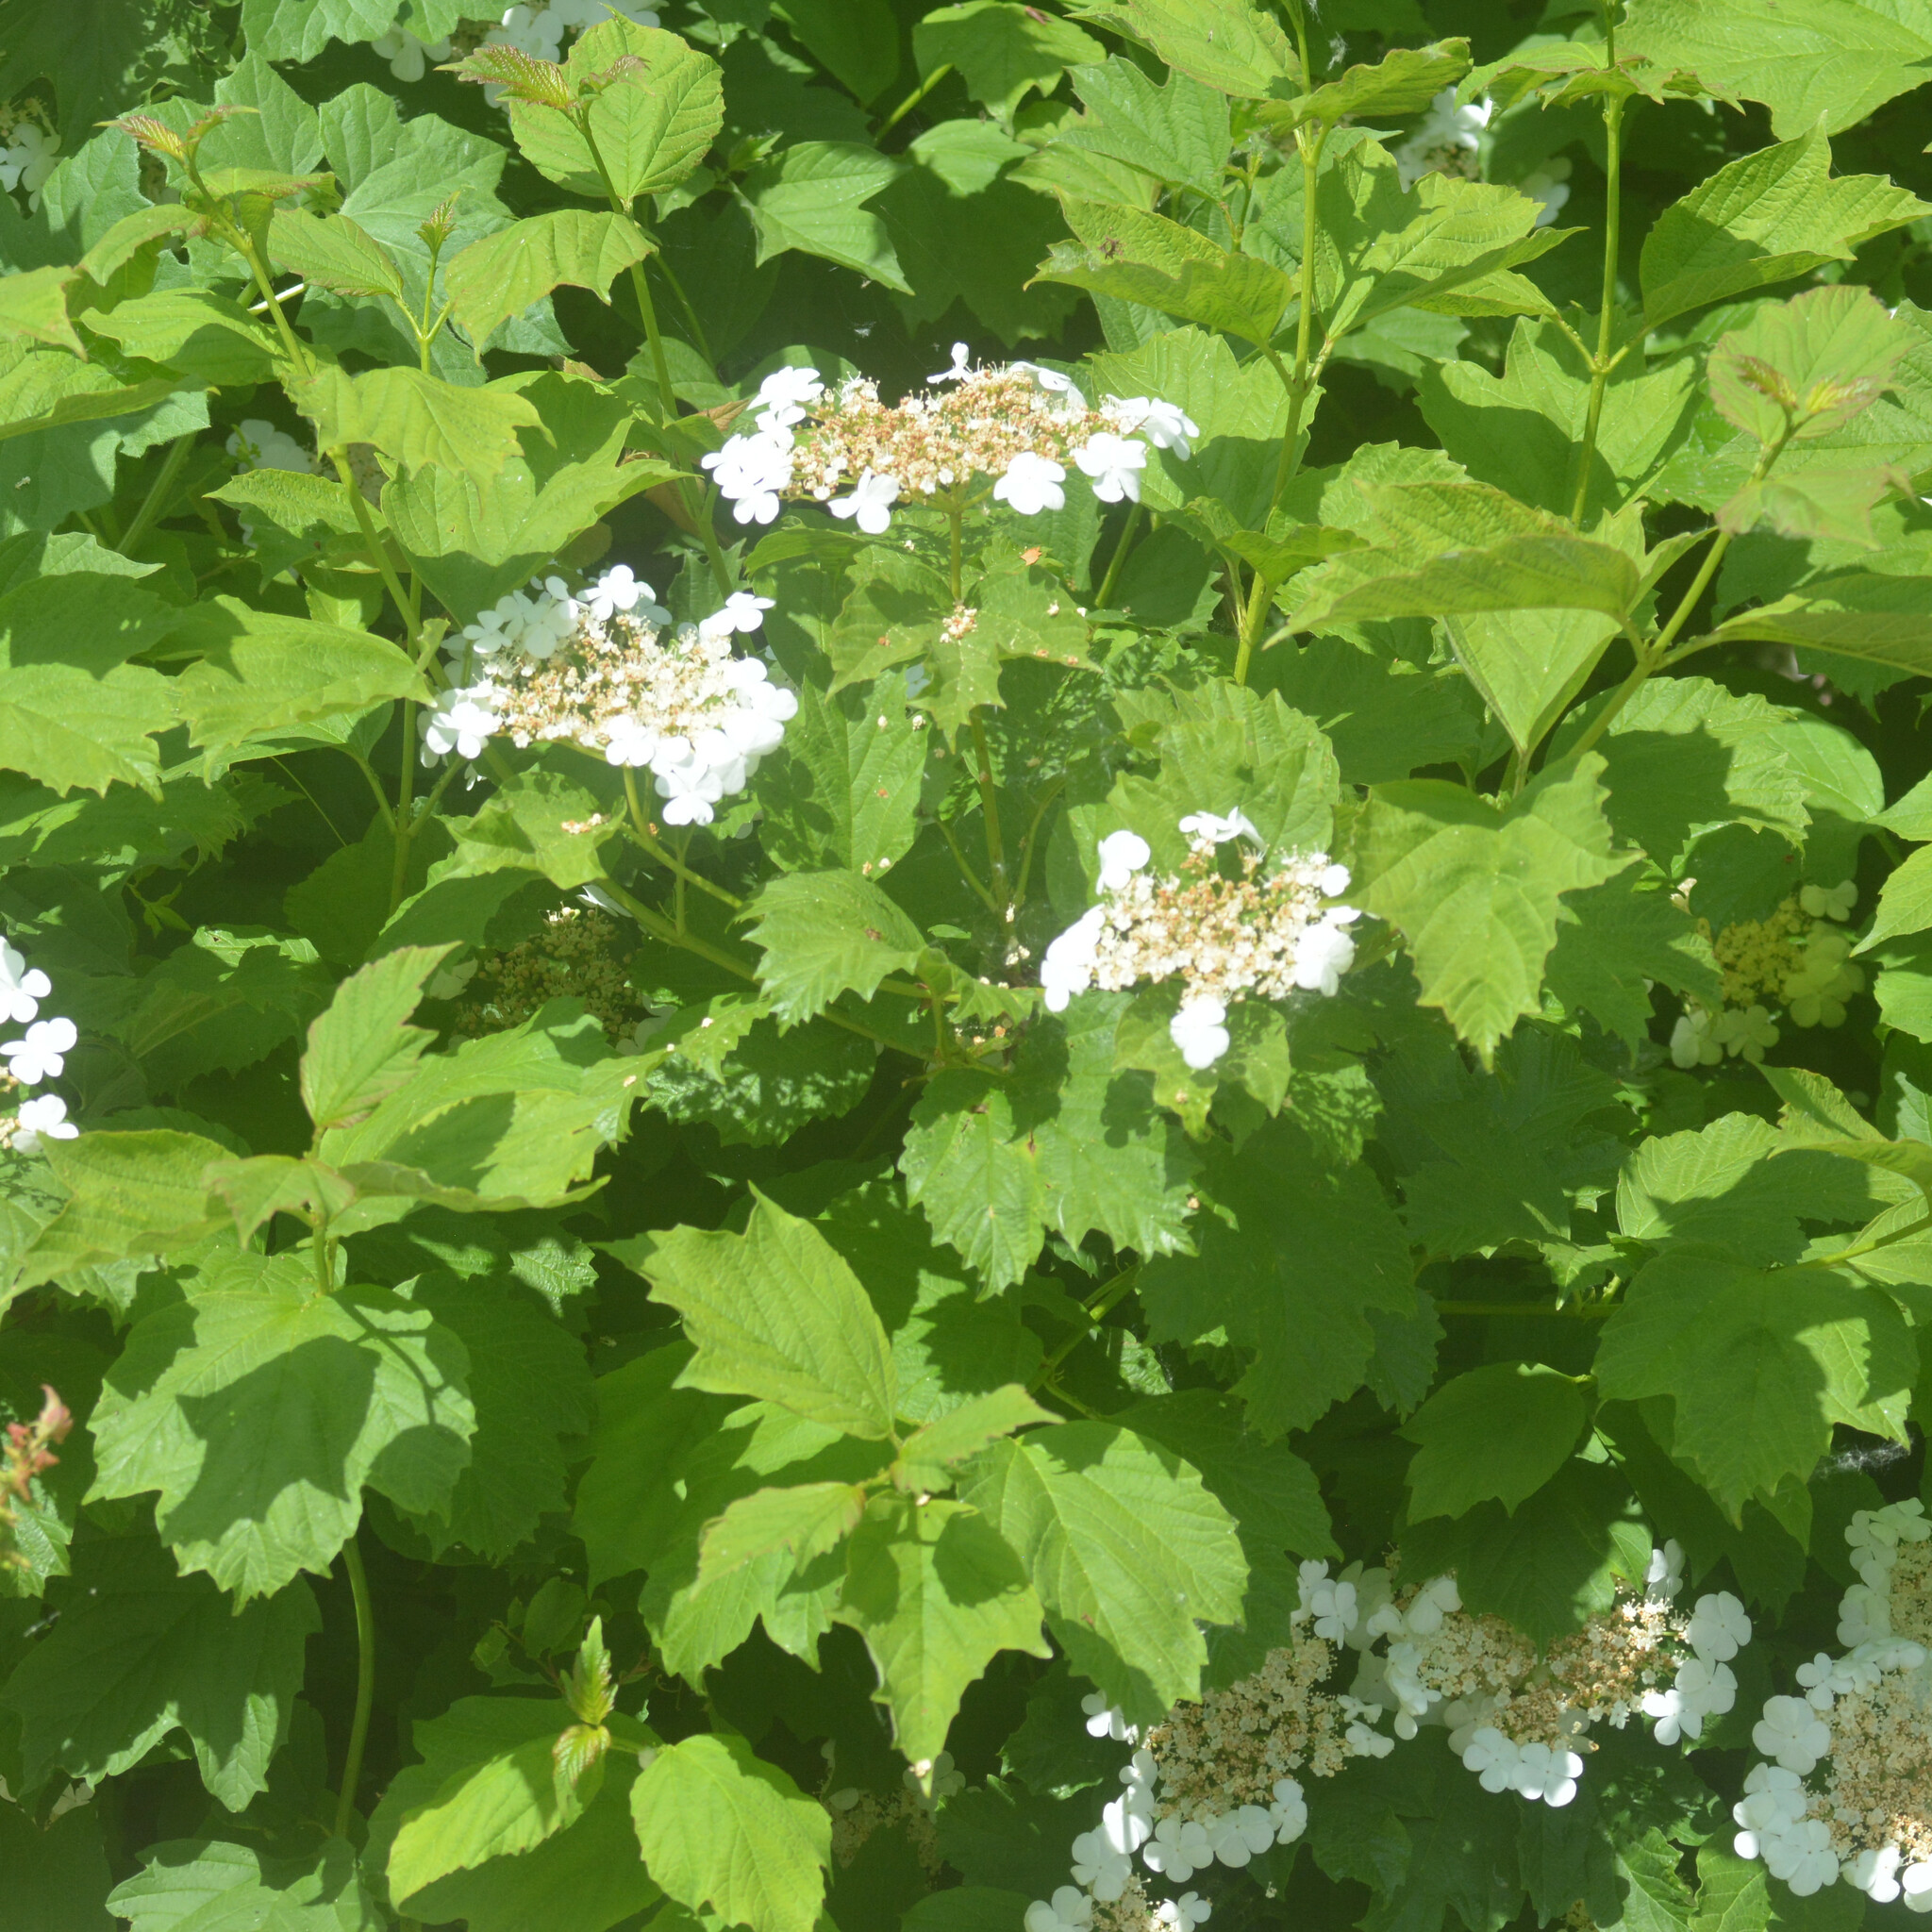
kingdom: Plantae
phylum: Tracheophyta
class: Magnoliopsida
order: Dipsacales
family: Viburnaceae
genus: Viburnum
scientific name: Viburnum opulus
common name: Guelder-rose
